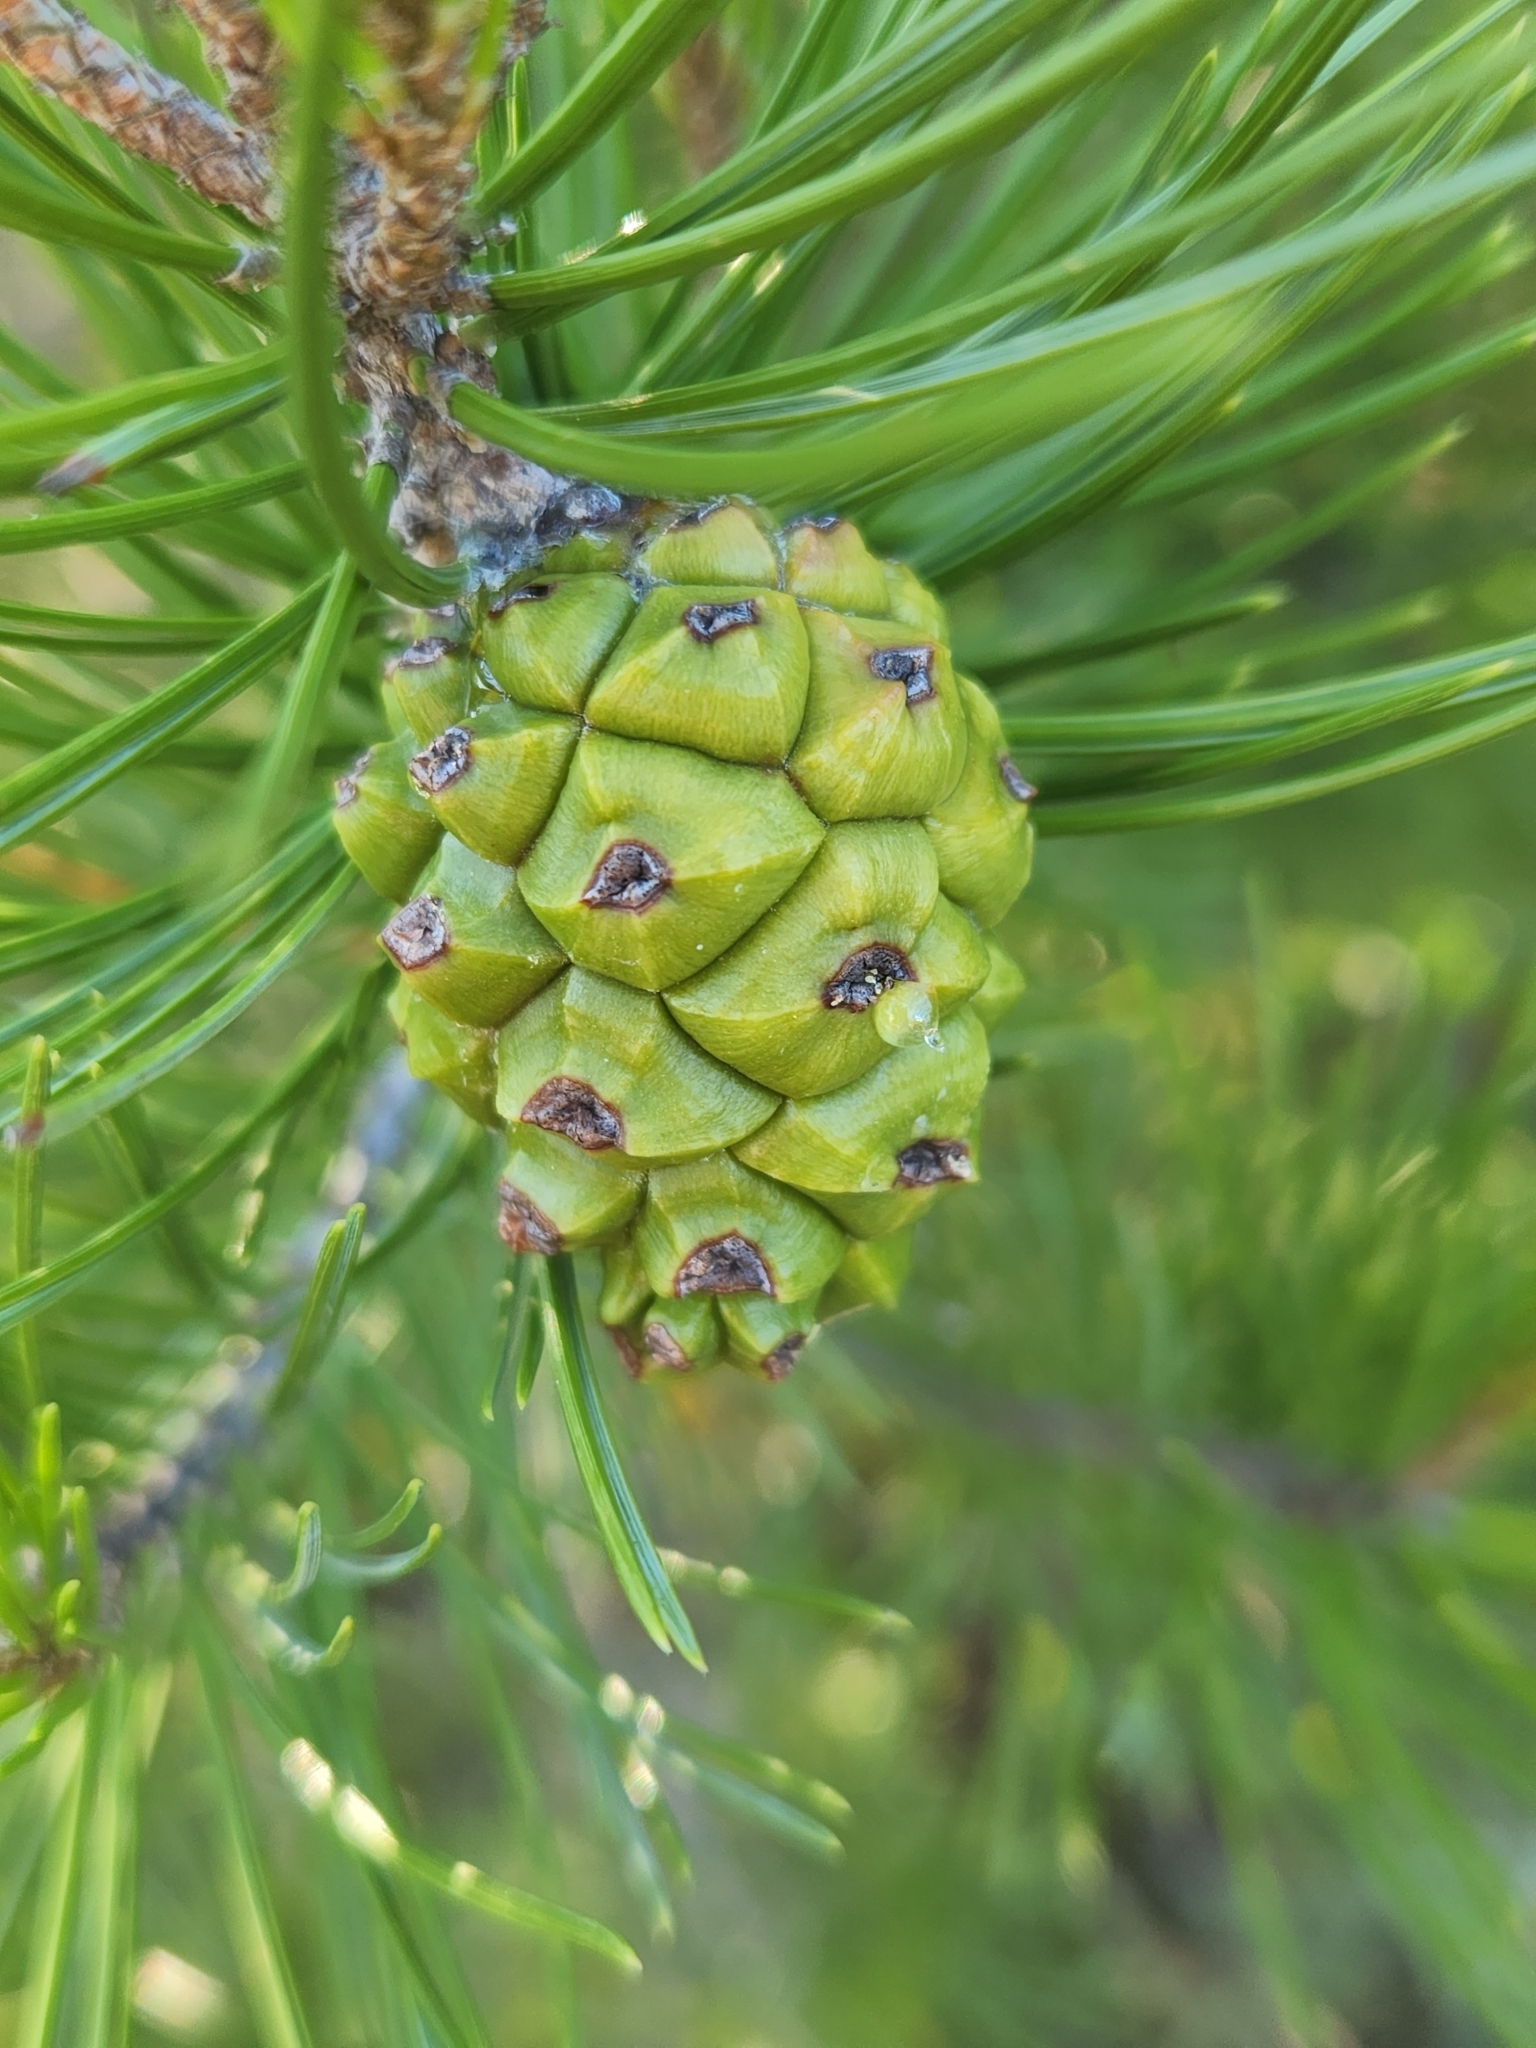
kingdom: Plantae
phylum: Tracheophyta
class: Pinopsida
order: Pinales
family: Pinaceae
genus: Pinus
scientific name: Pinus remota
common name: Nut pine
